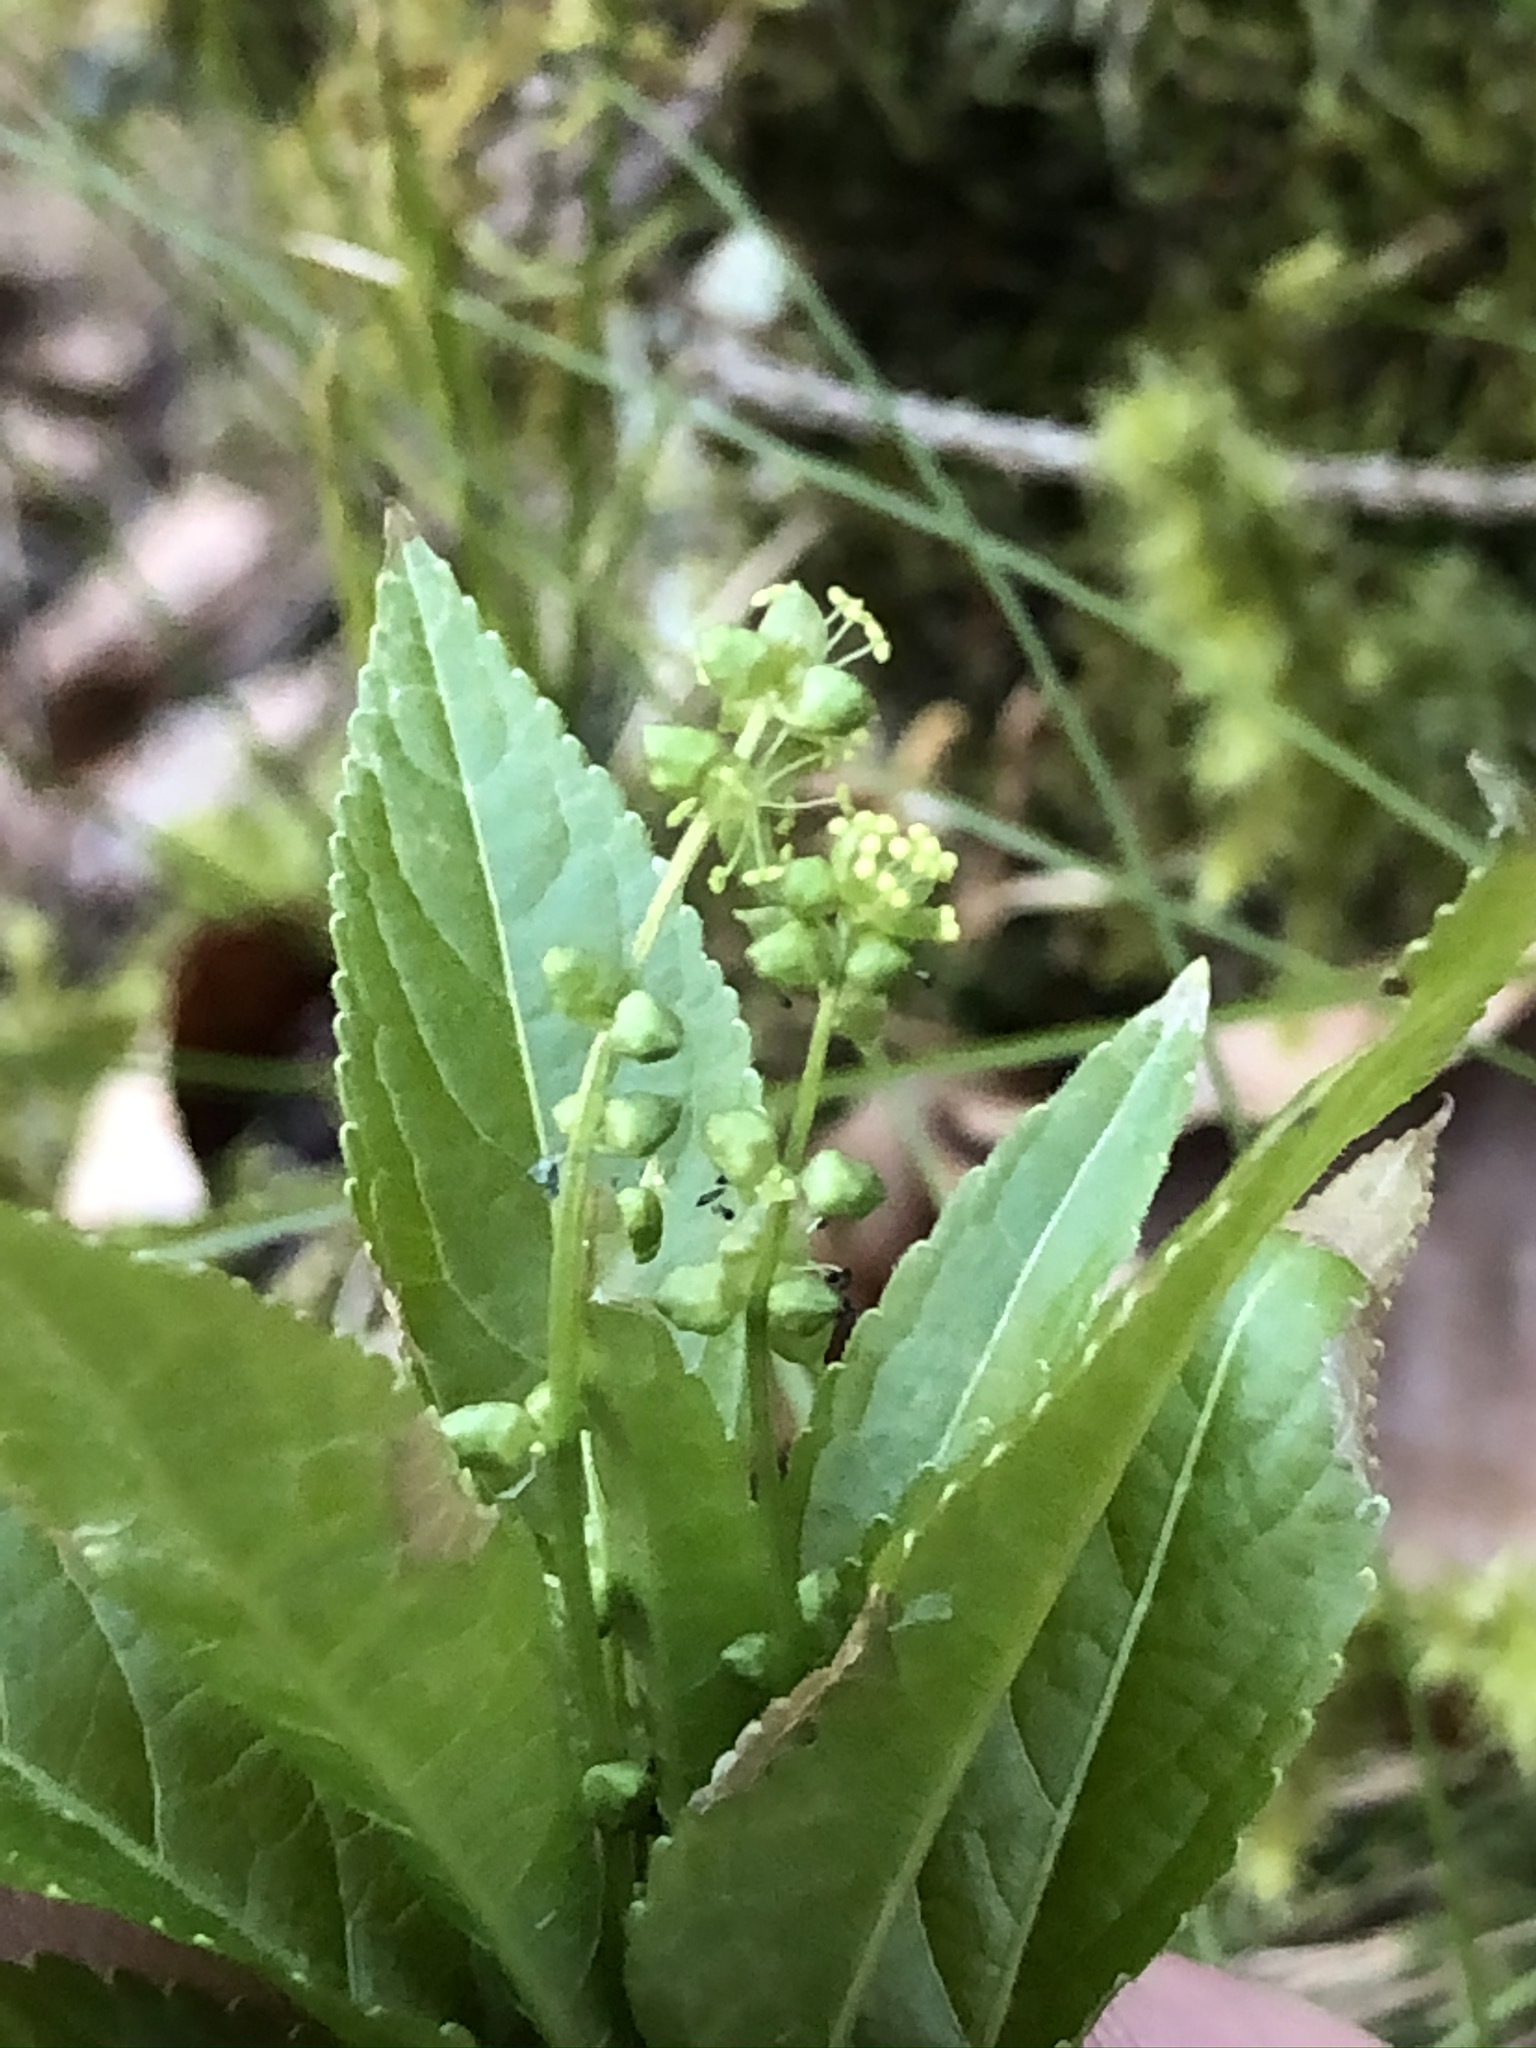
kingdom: Plantae
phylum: Tracheophyta
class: Magnoliopsida
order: Malpighiales
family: Euphorbiaceae
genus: Mercurialis
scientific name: Mercurialis perennis
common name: Dog mercury
